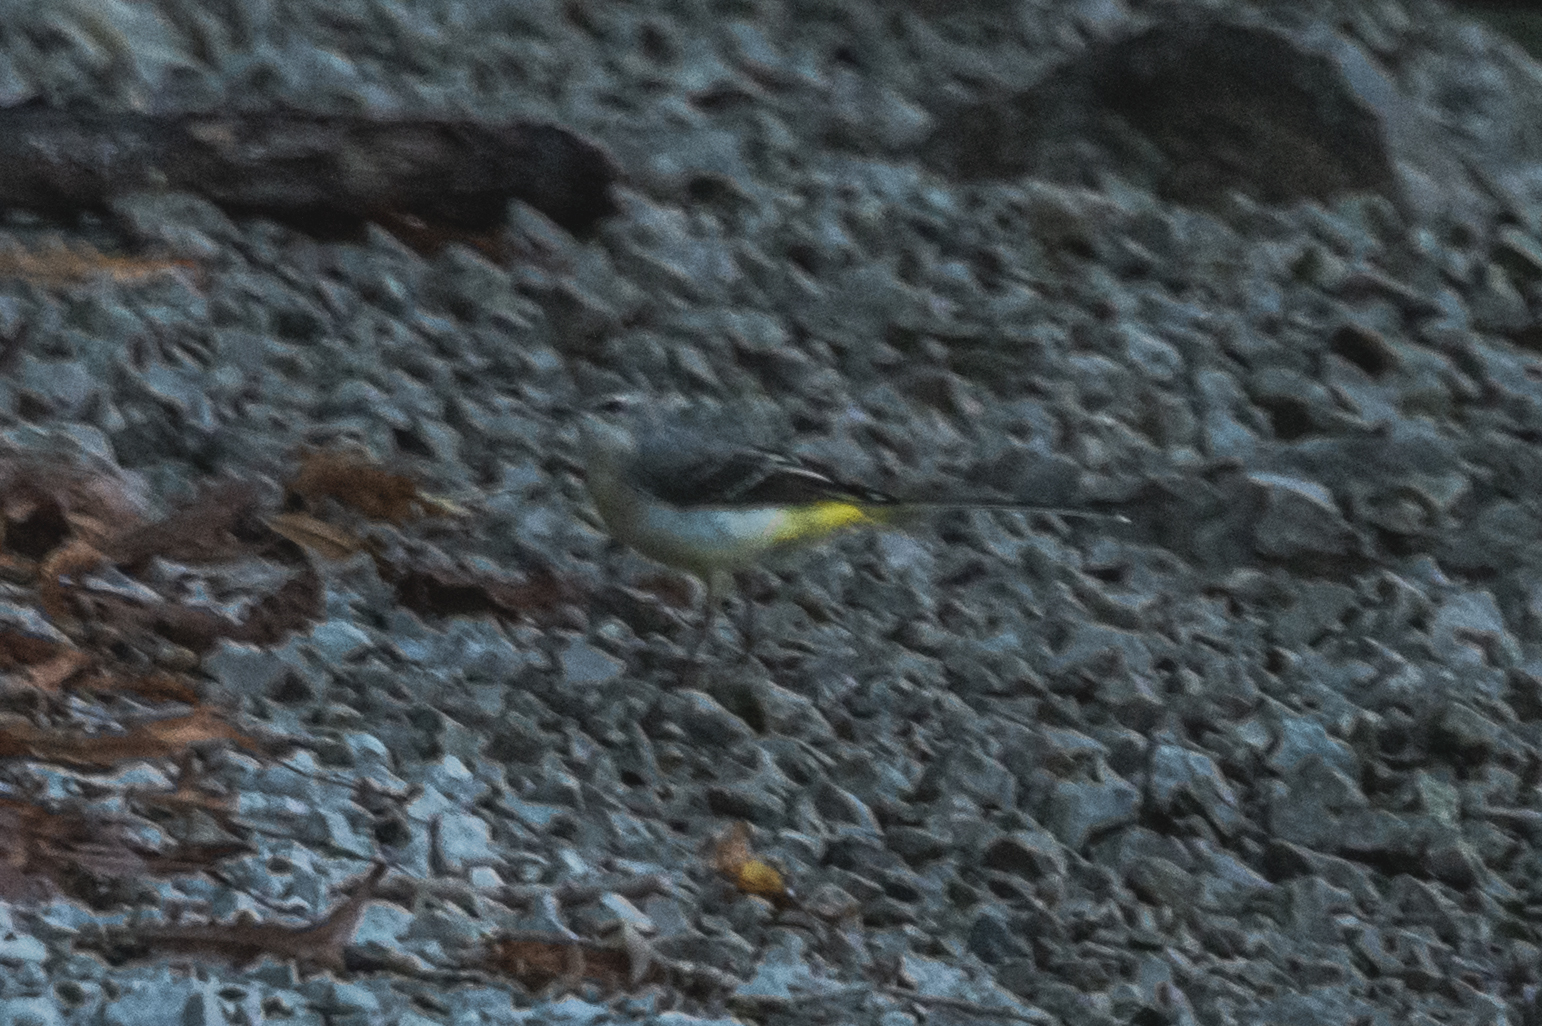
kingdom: Animalia
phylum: Chordata
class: Aves
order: Passeriformes
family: Motacillidae
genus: Motacilla
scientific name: Motacilla cinerea
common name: Grey wagtail
